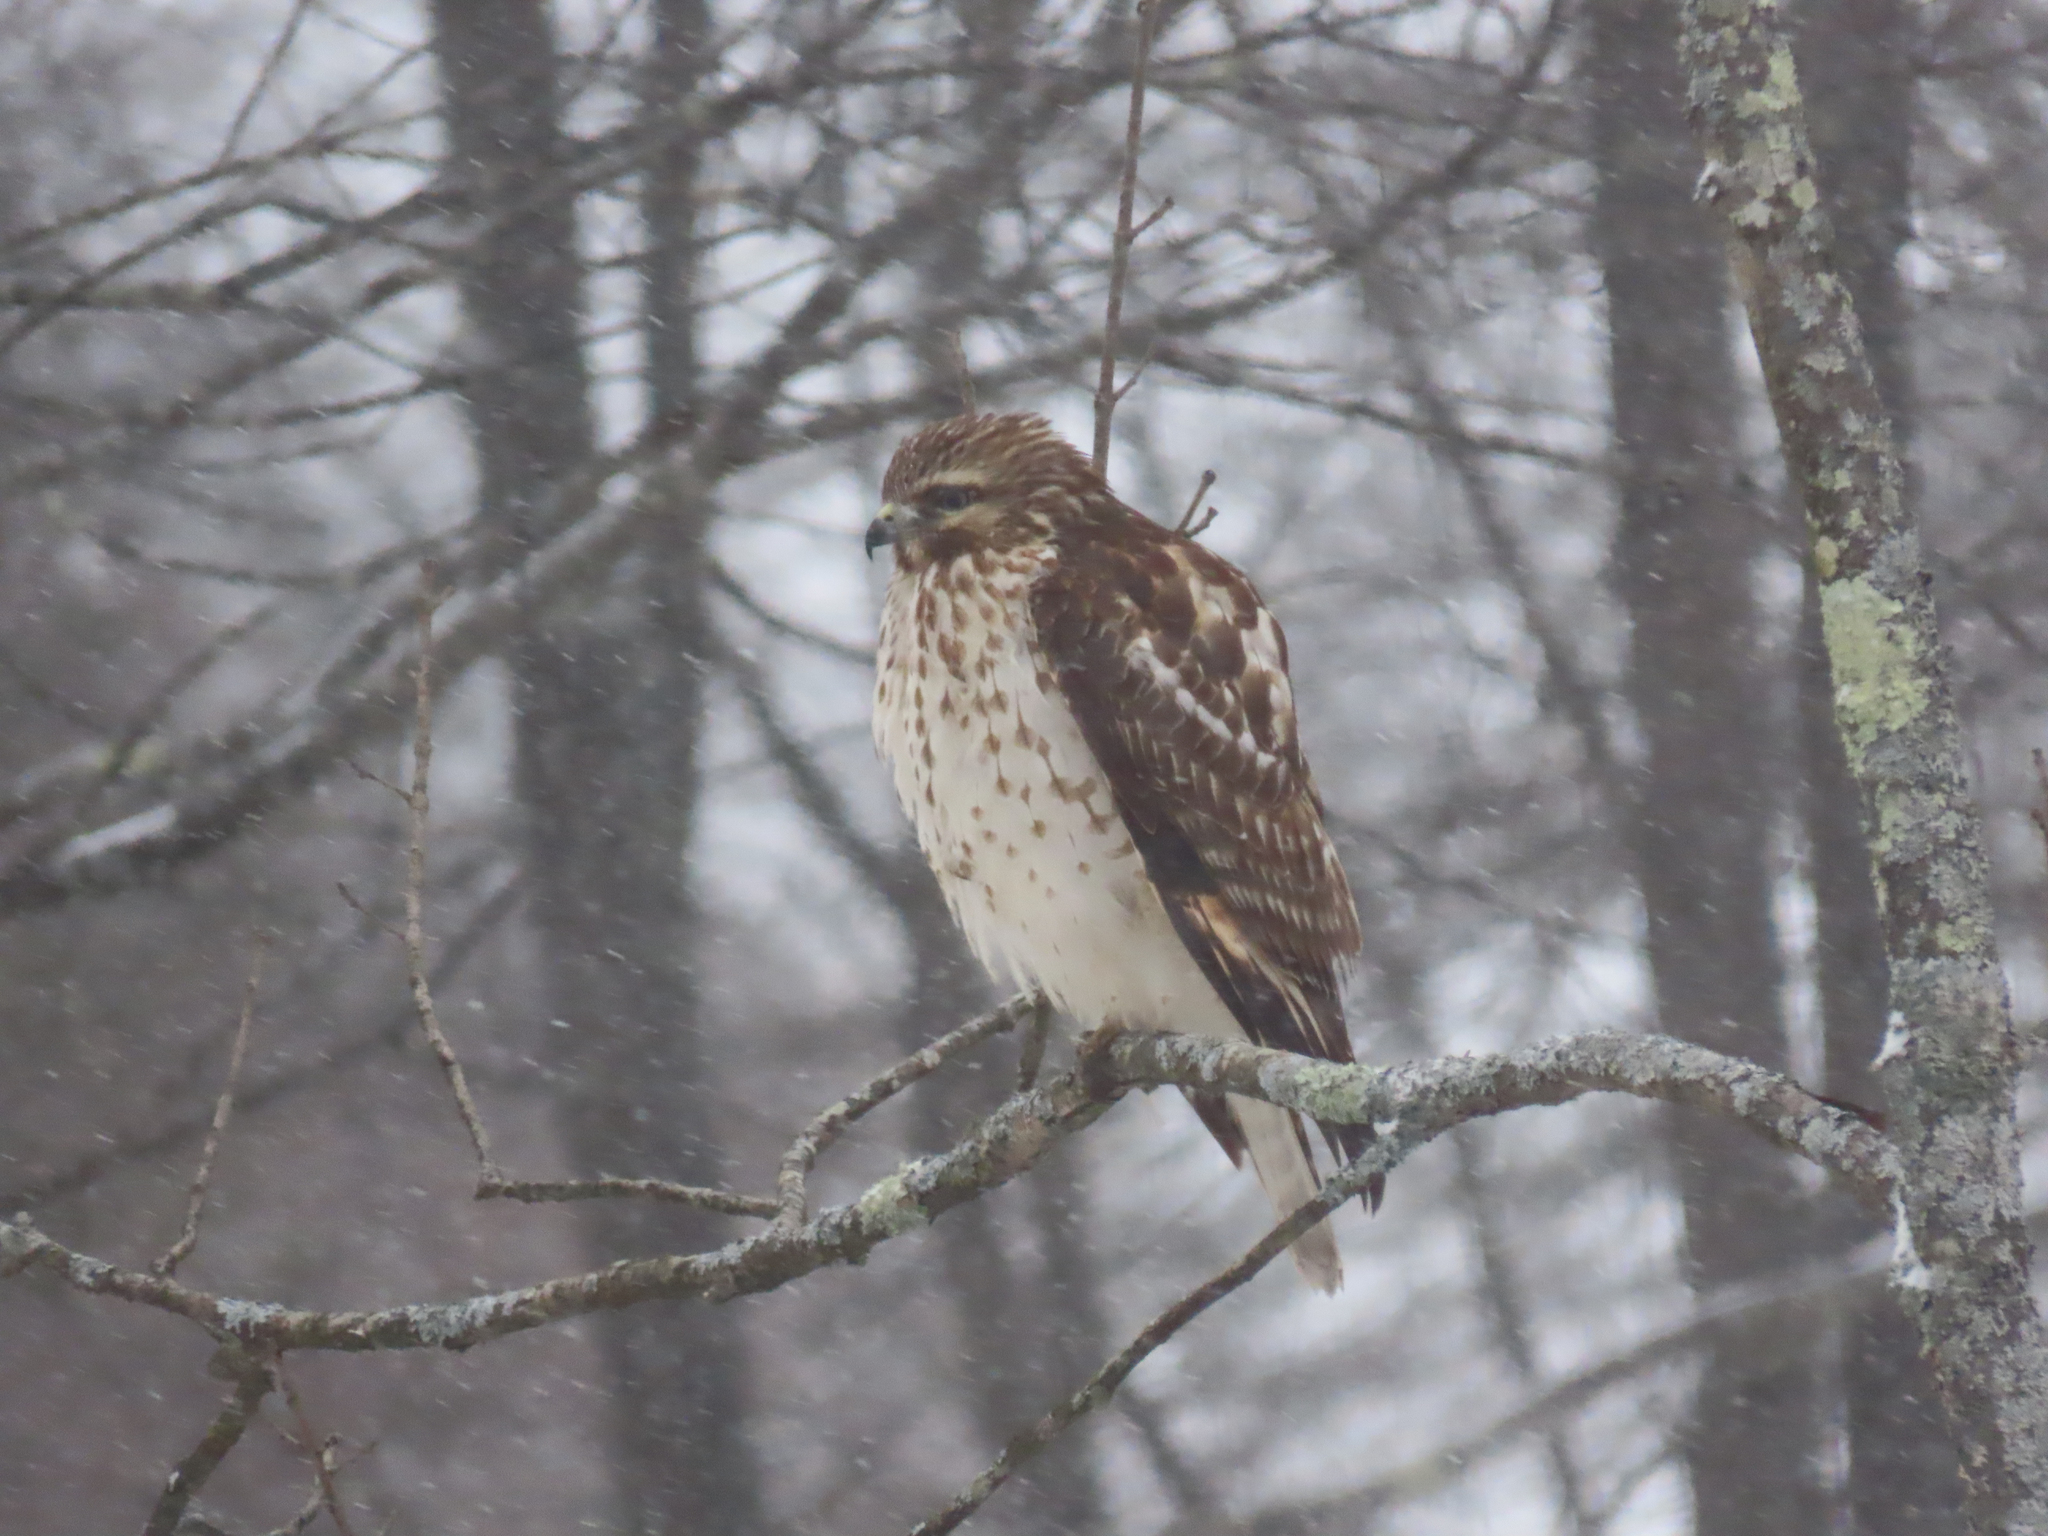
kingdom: Animalia
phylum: Chordata
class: Aves
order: Accipitriformes
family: Accipitridae
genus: Buteo
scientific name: Buteo lineatus
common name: Red-shouldered hawk
